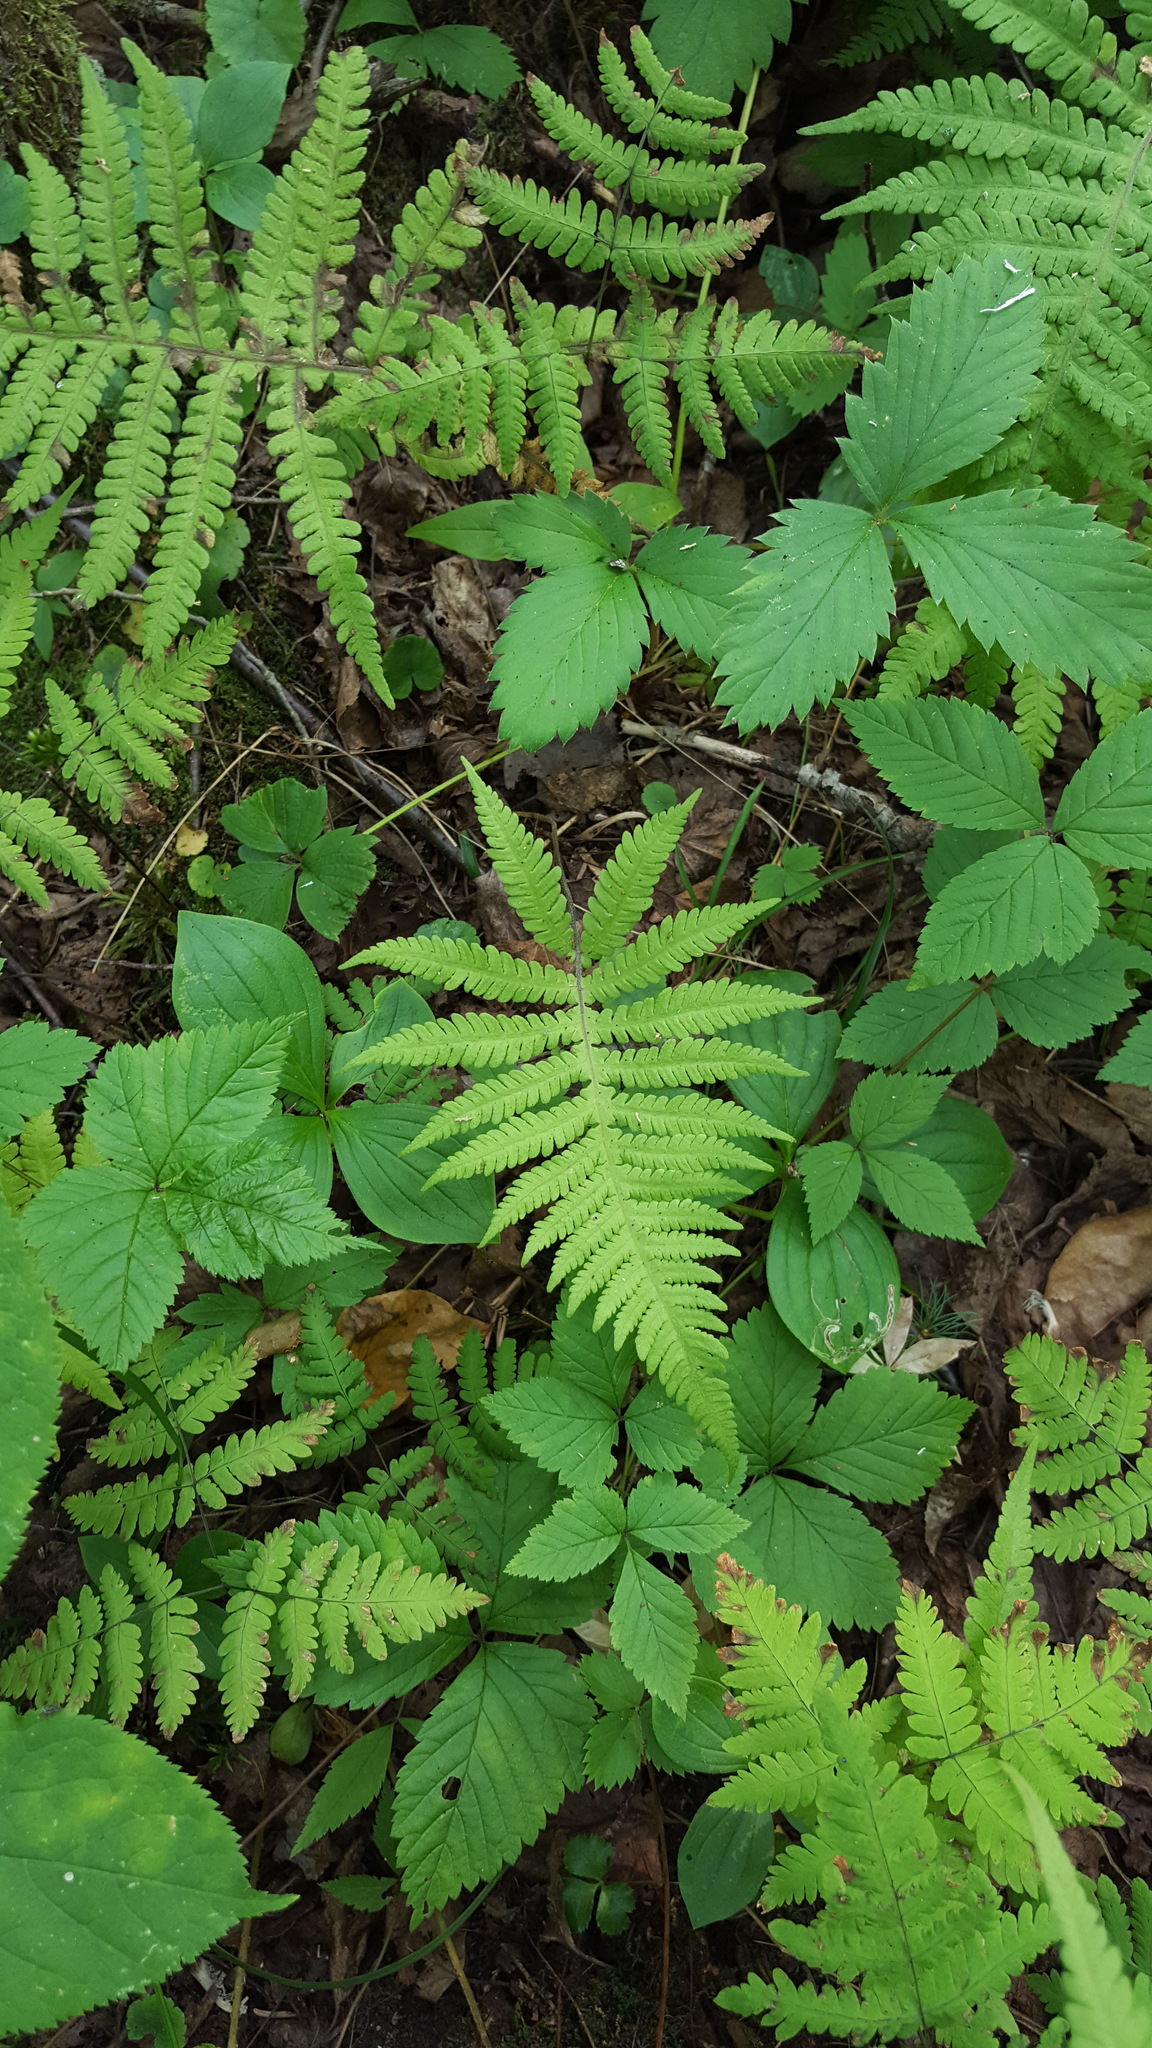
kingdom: Plantae
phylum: Tracheophyta
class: Polypodiopsida
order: Polypodiales
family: Thelypteridaceae
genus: Phegopteris
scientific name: Phegopteris connectilis
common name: Beech fern
